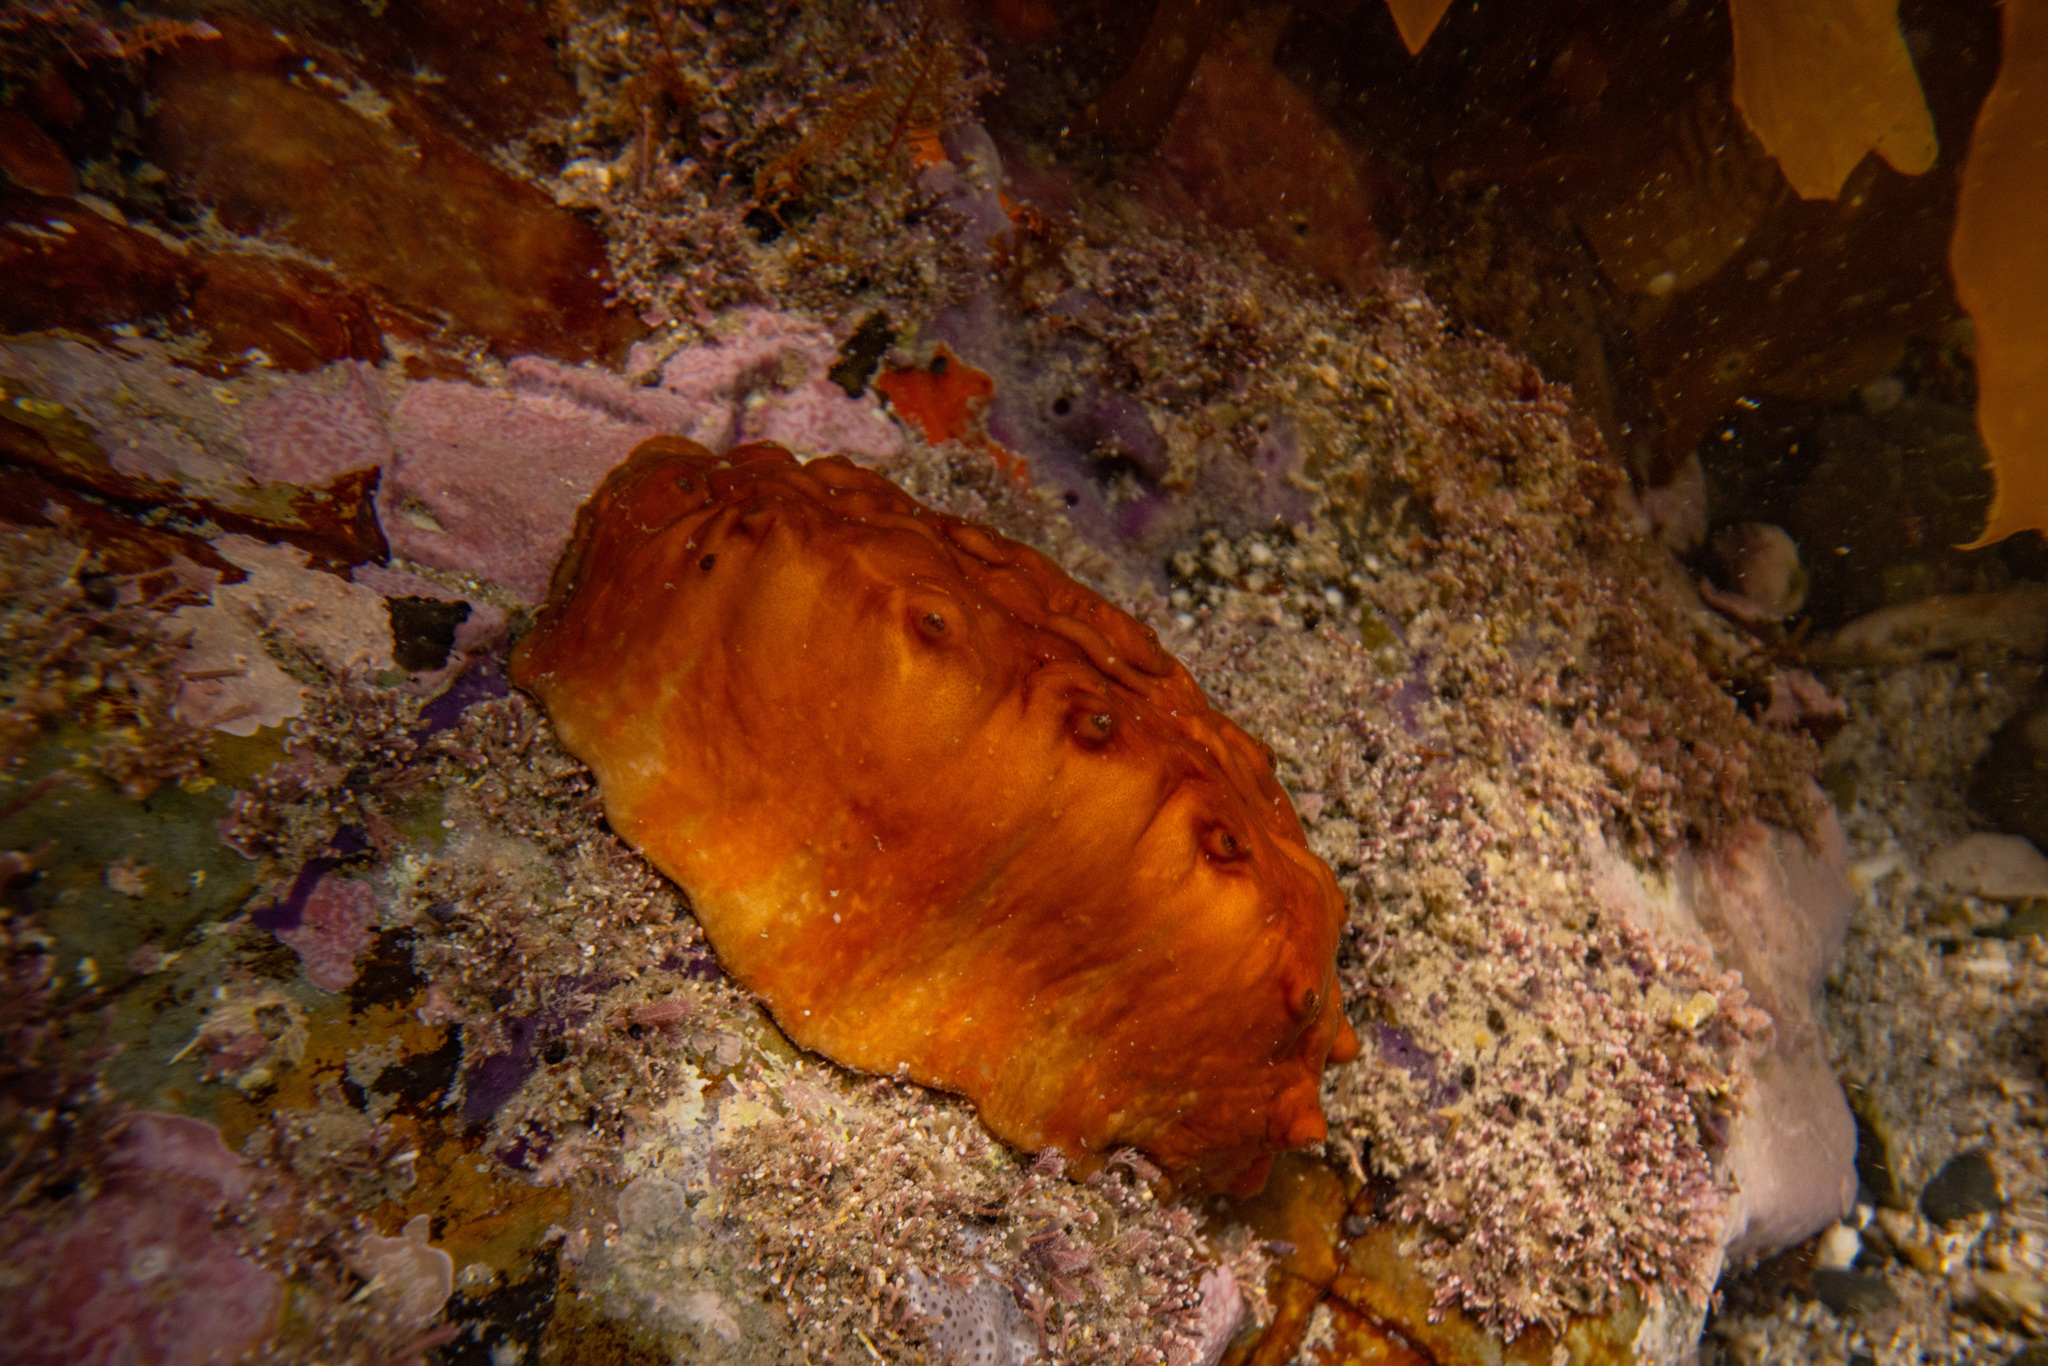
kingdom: Animalia
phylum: Mollusca
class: Polyplacophora
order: Chitonida
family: Acanthochitonidae
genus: Cryptoconchus
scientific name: Cryptoconchus porosus
